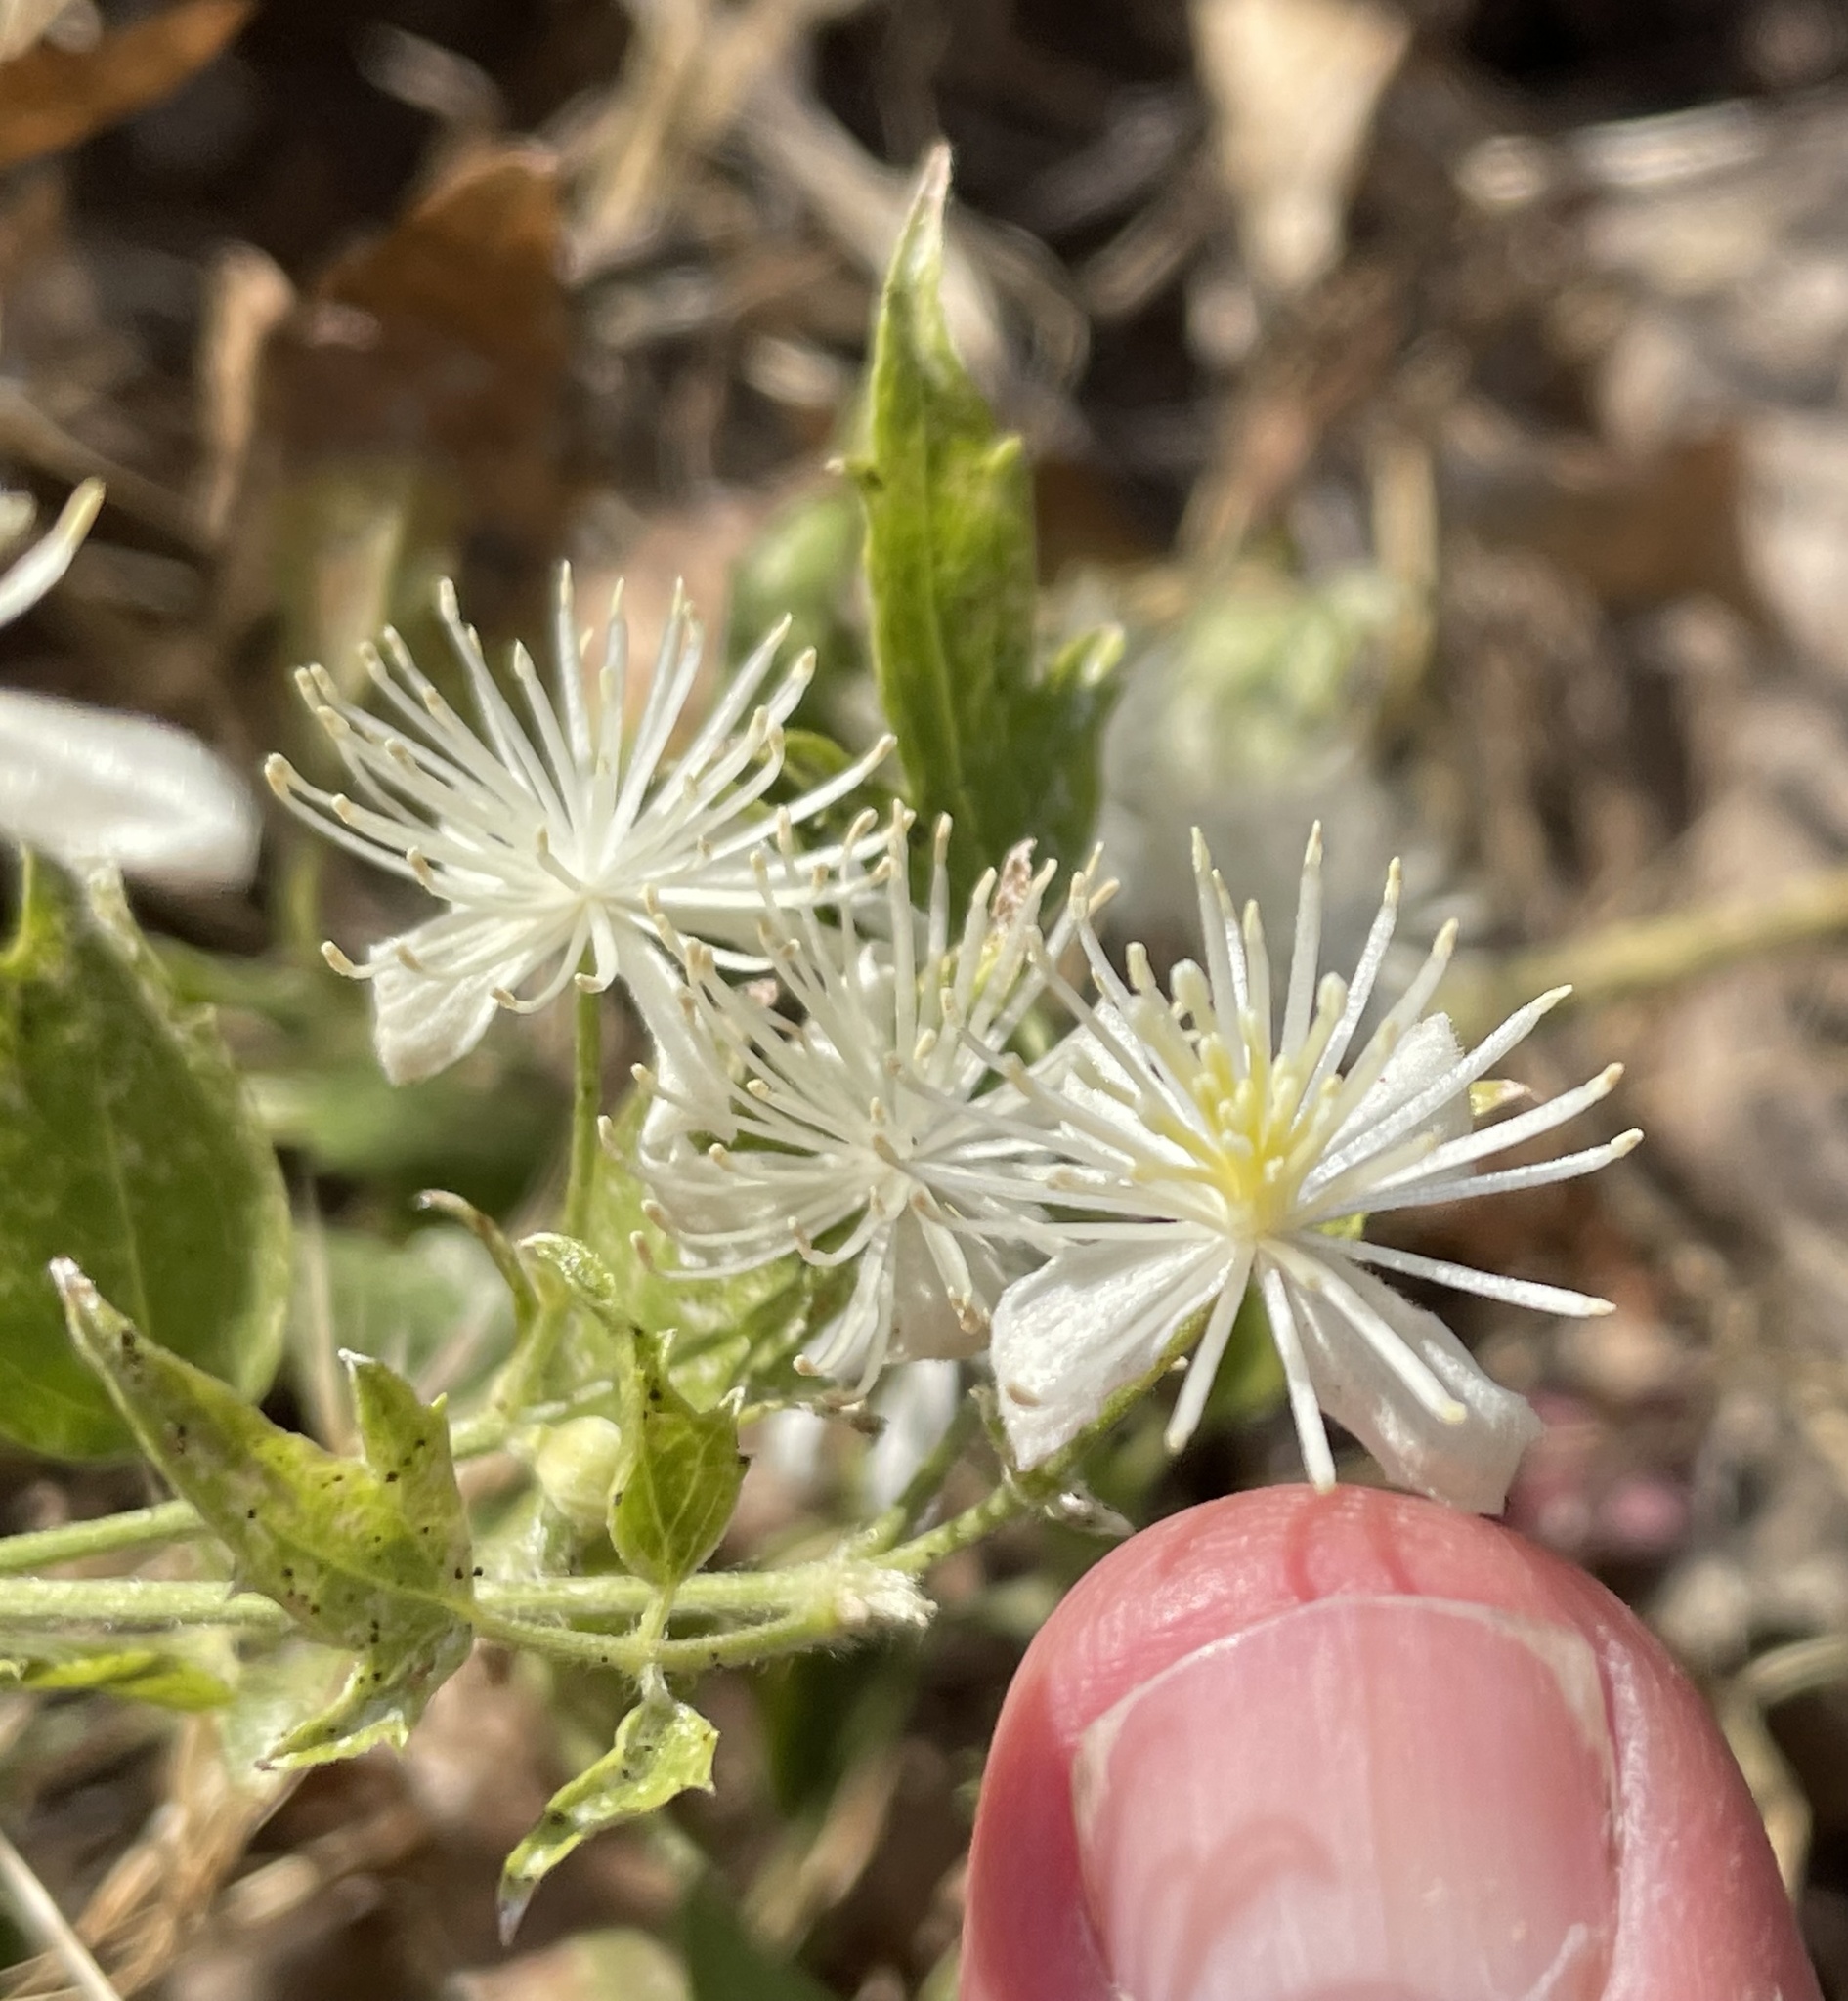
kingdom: Plantae
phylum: Tracheophyta
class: Magnoliopsida
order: Ranunculales
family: Ranunculaceae
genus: Clematis
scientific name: Clematis ligusticifolia
